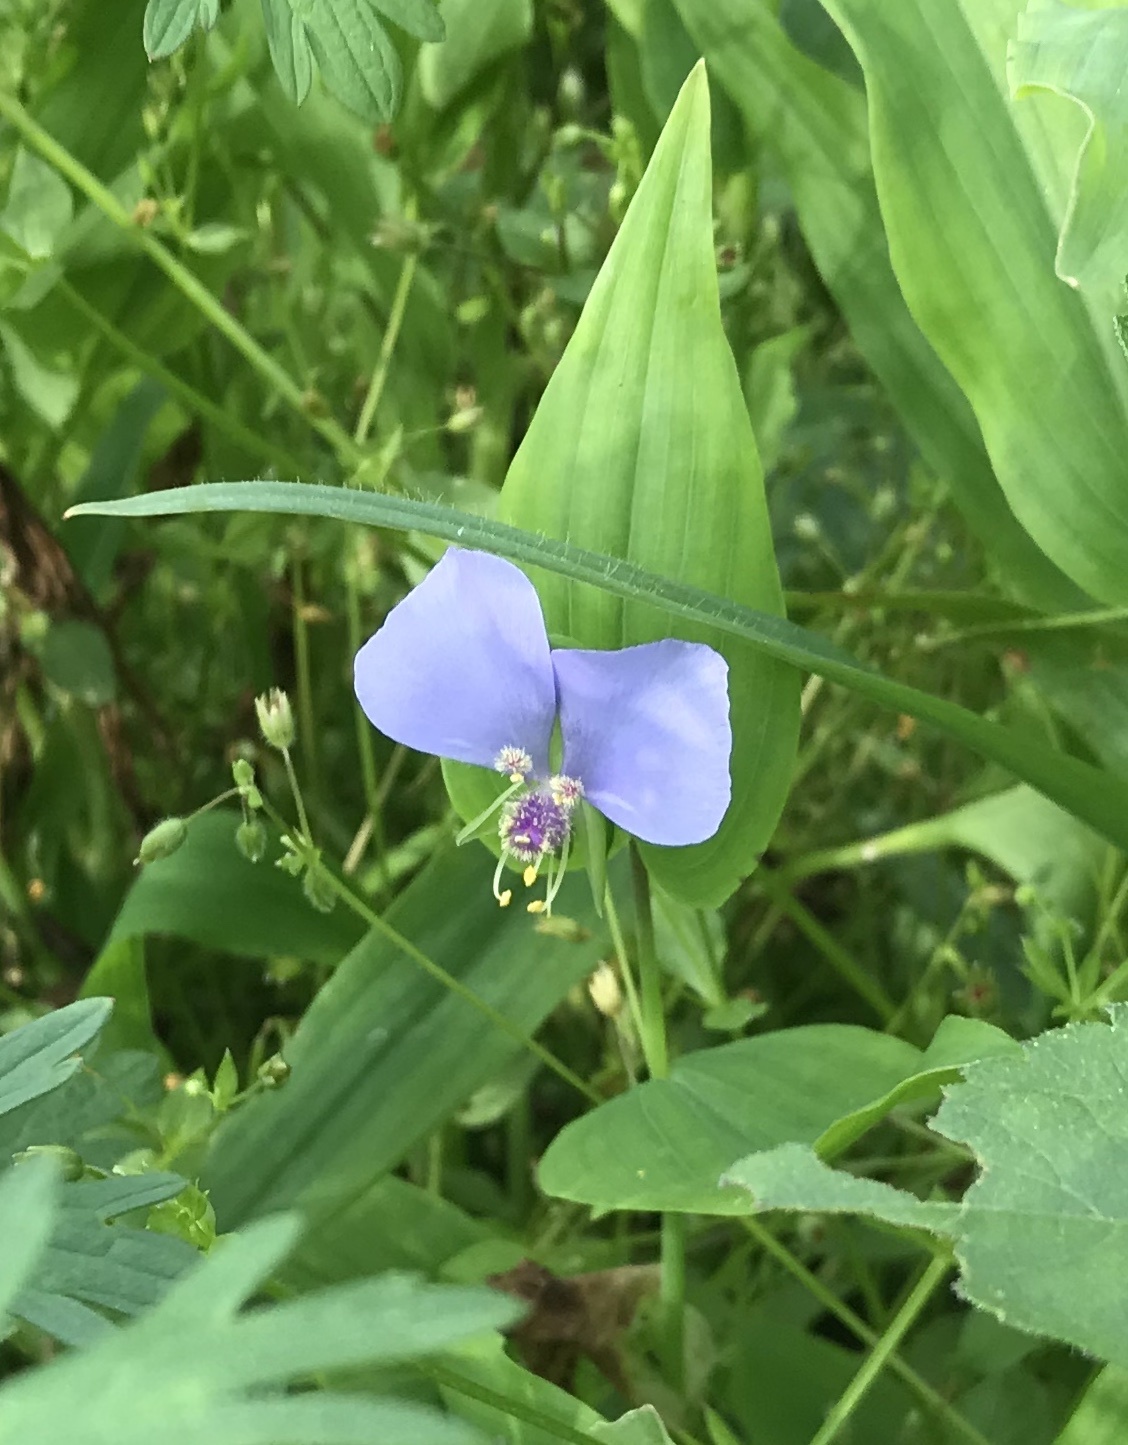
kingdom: Plantae
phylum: Tracheophyta
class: Liliopsida
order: Commelinales
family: Commelinaceae
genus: Tinantia
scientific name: Tinantia anomala
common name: False dayflower
